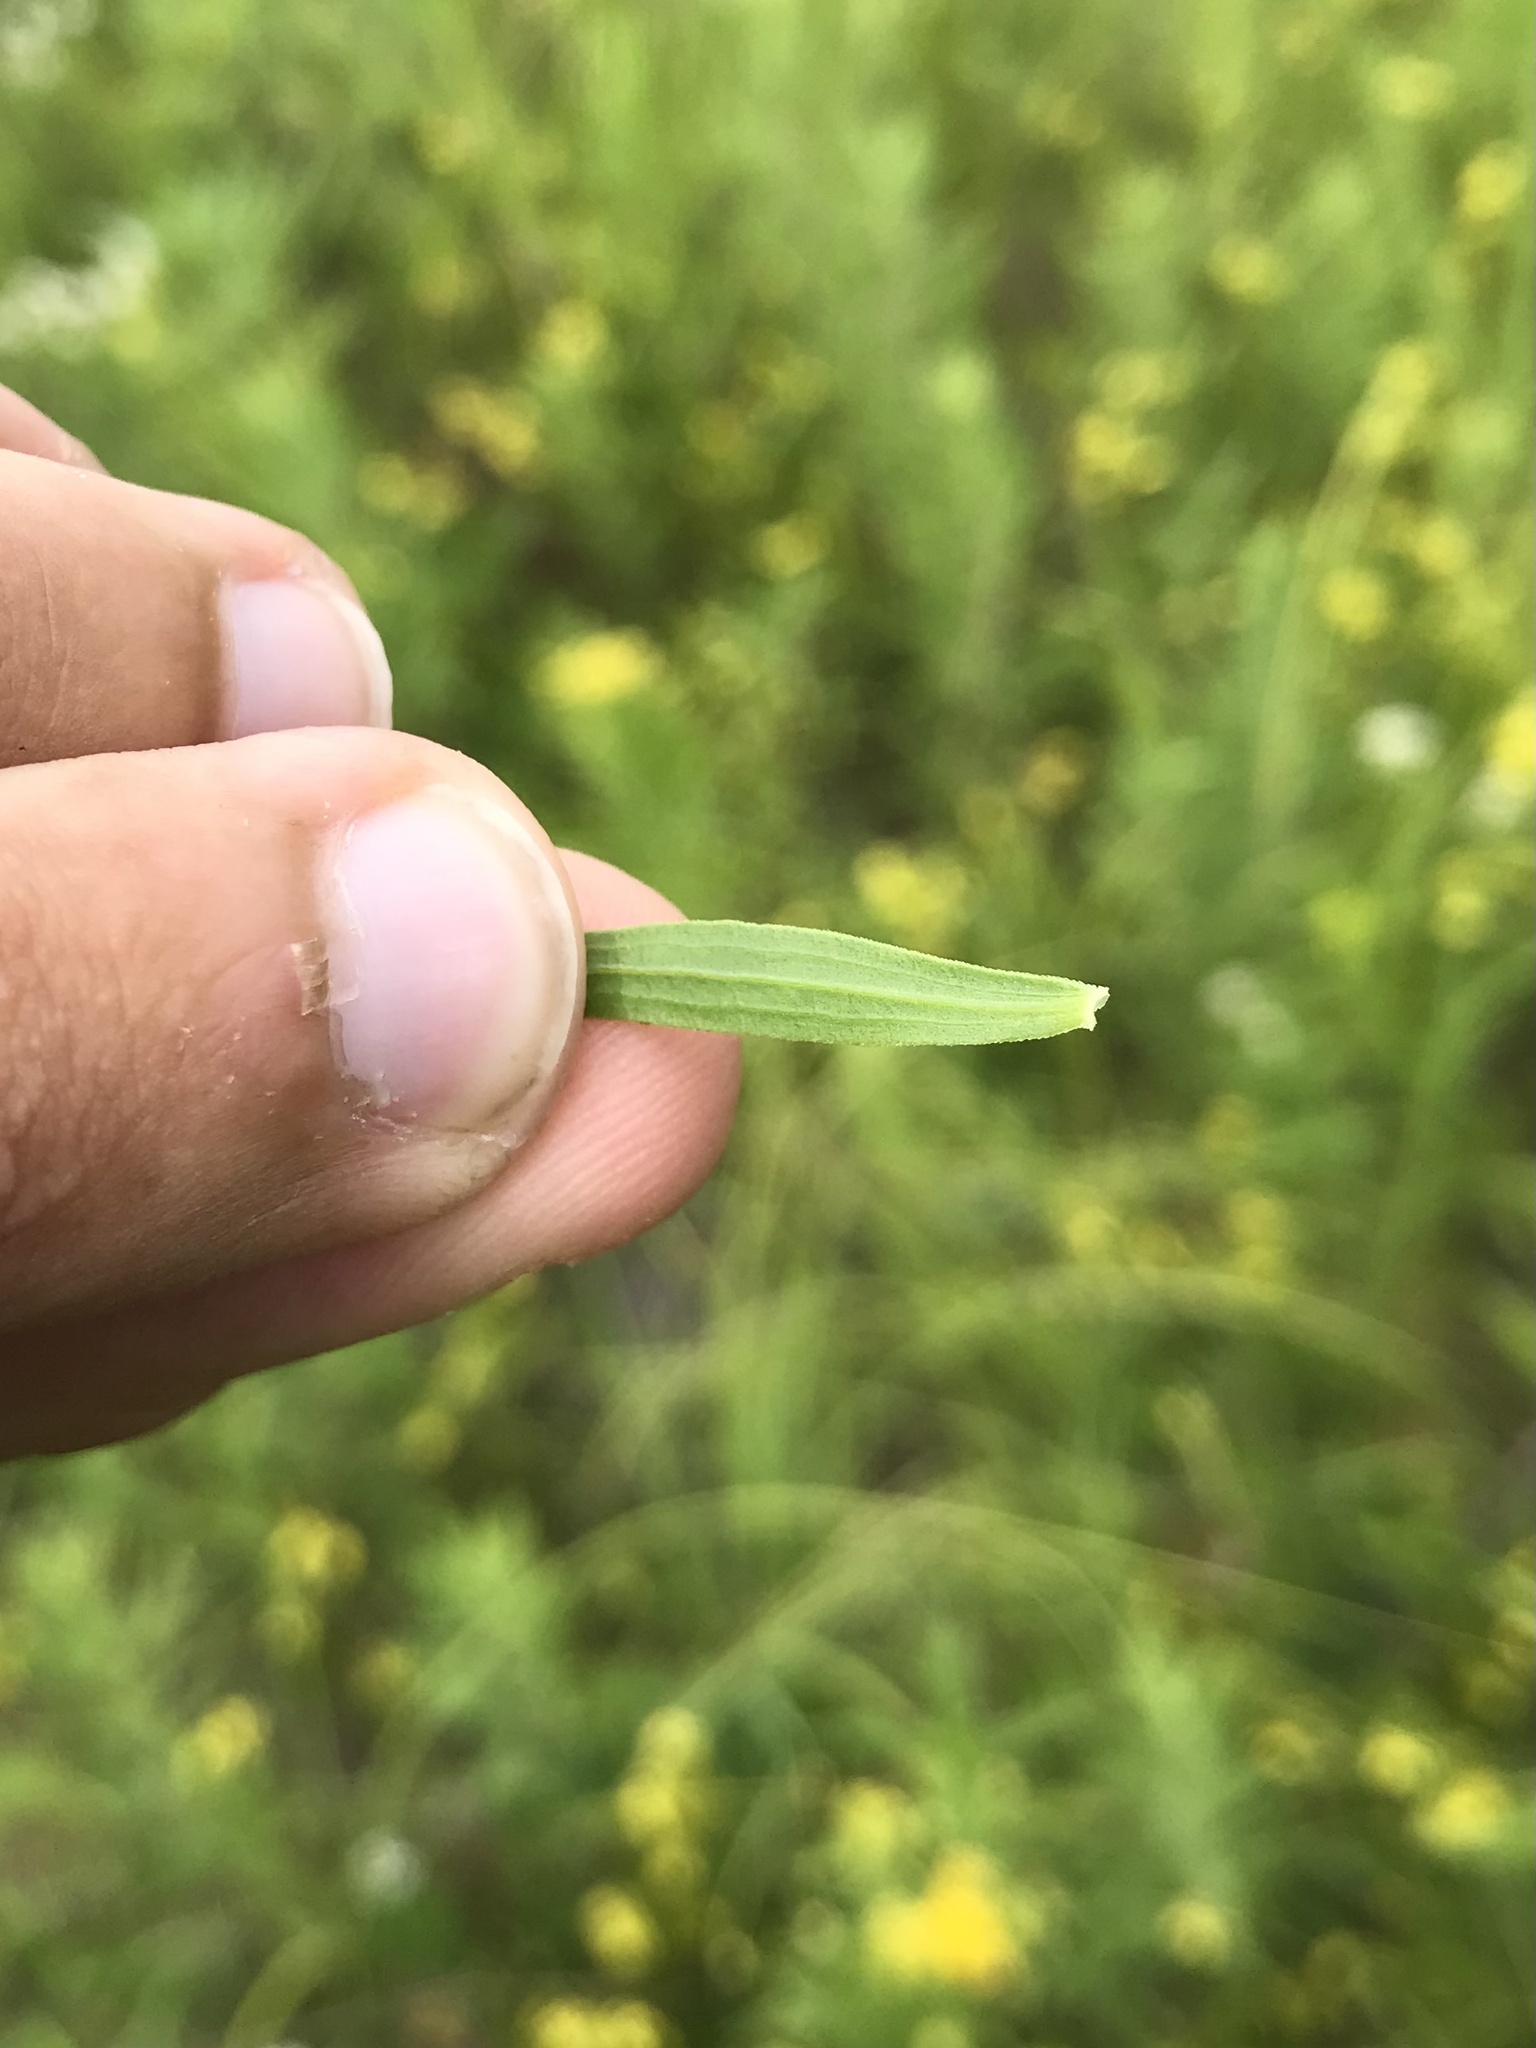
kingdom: Plantae
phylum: Tracheophyta
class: Magnoliopsida
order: Asterales
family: Asteraceae
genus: Euthamia
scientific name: Euthamia graminifolia
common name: Common goldentop
